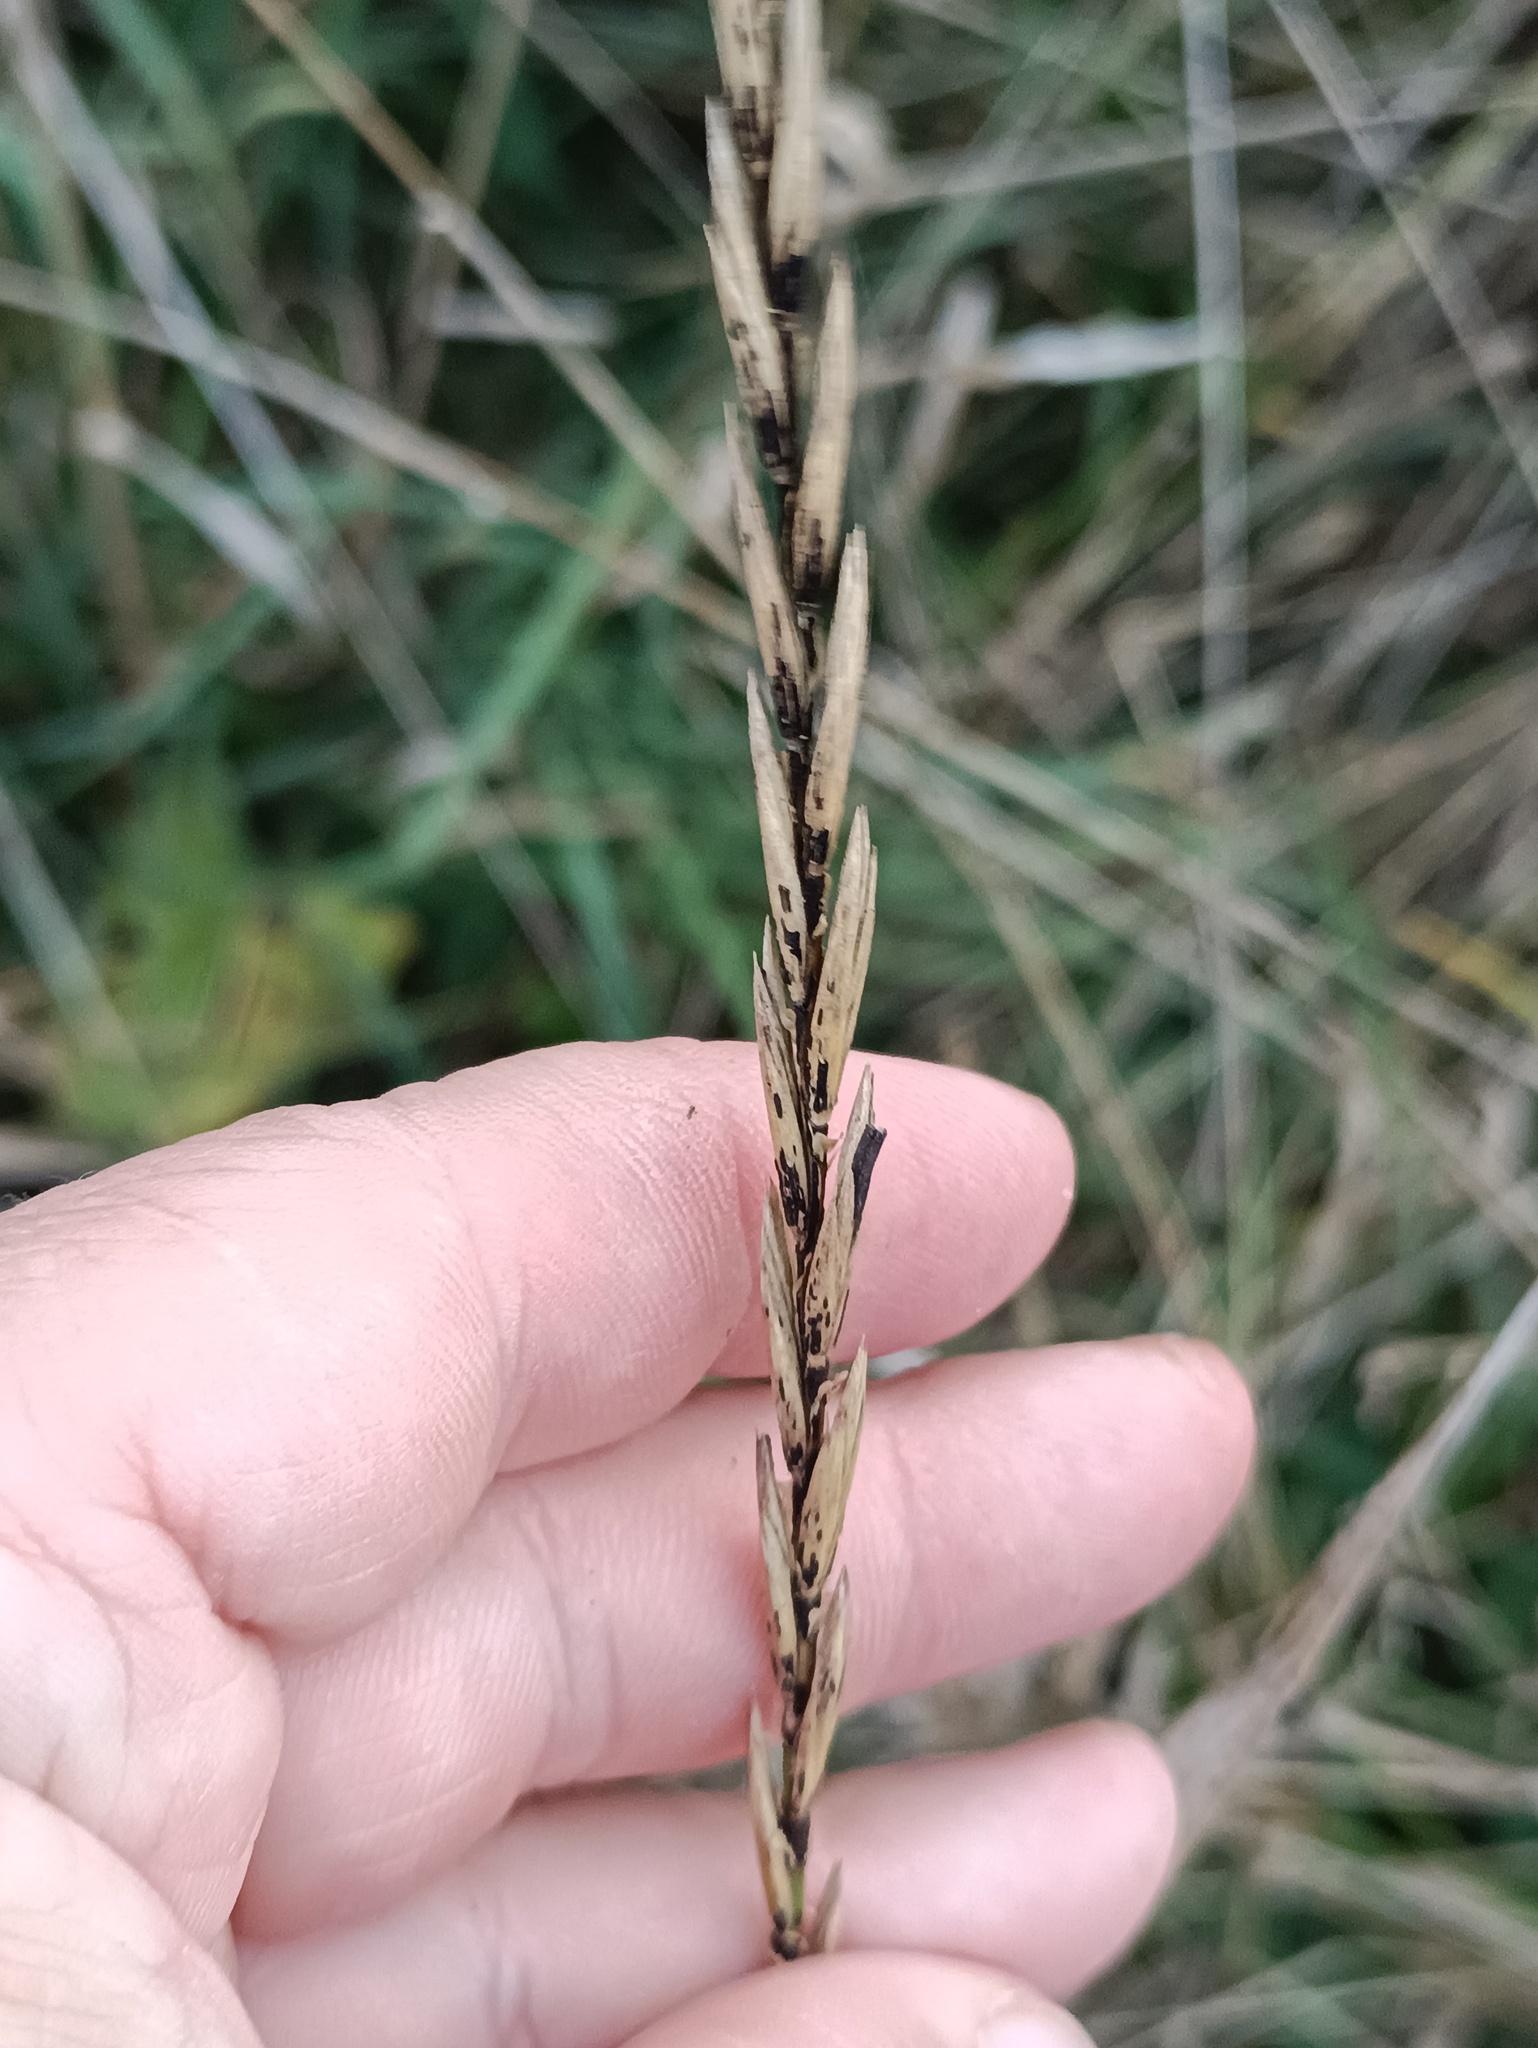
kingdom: Plantae
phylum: Tracheophyta
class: Liliopsida
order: Poales
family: Poaceae
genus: Elymus
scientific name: Elymus repens
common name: Quackgrass
